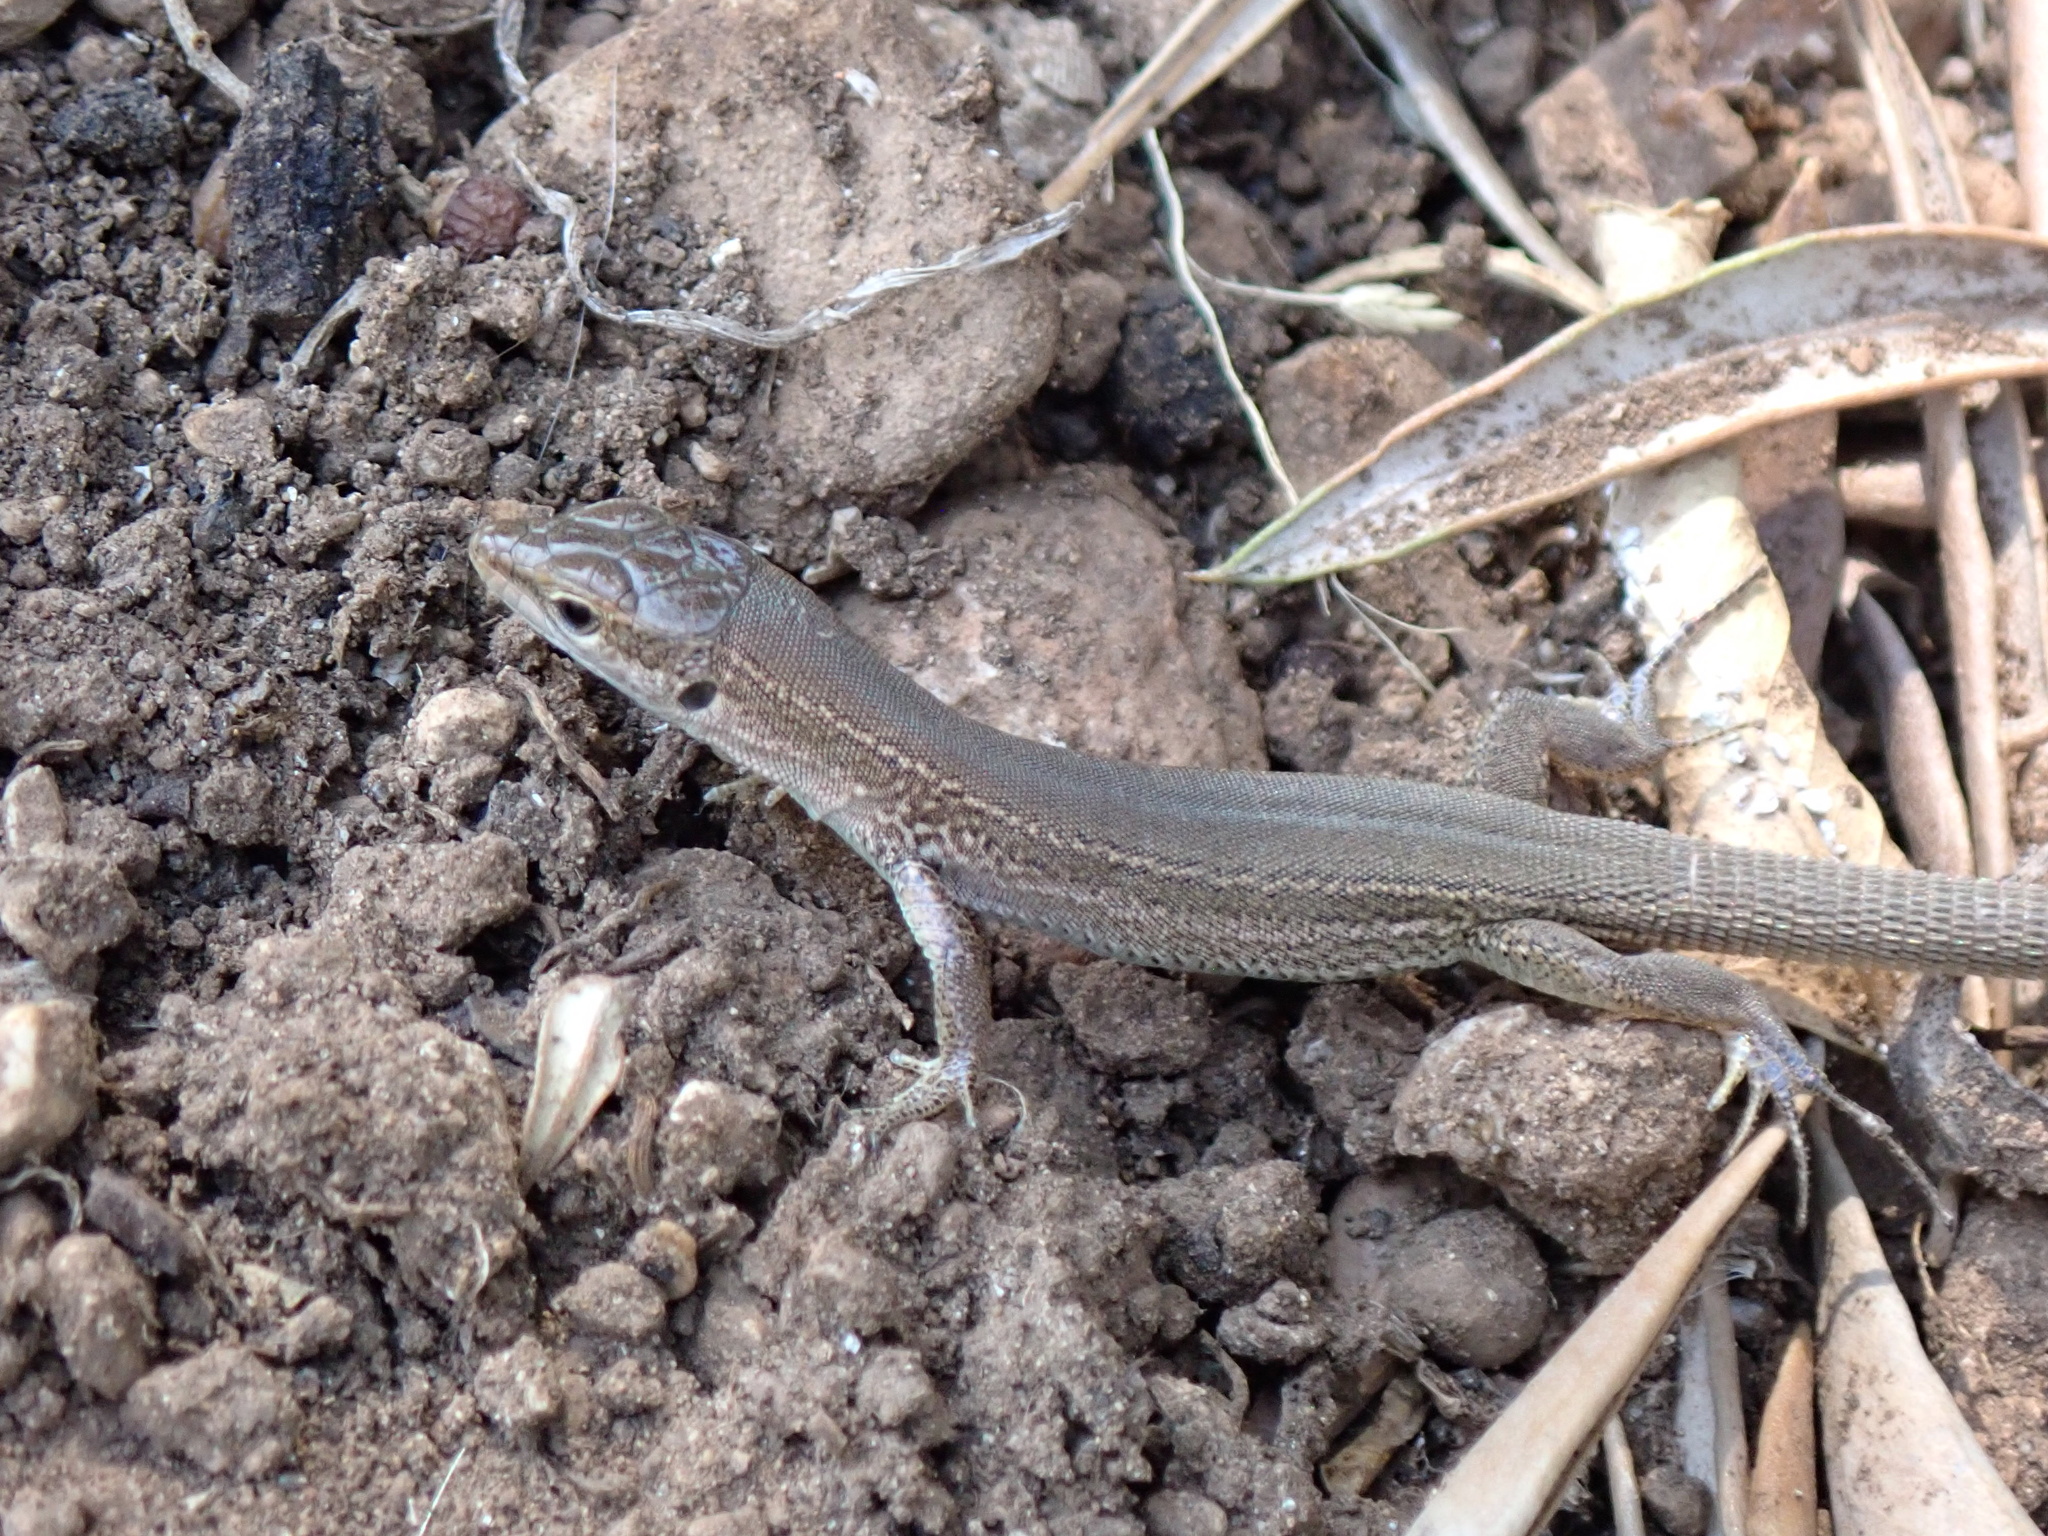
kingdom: Animalia
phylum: Chordata
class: Squamata
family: Lacertidae
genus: Podarcis
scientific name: Podarcis melisellensis
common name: Dalmatian wall lizard
